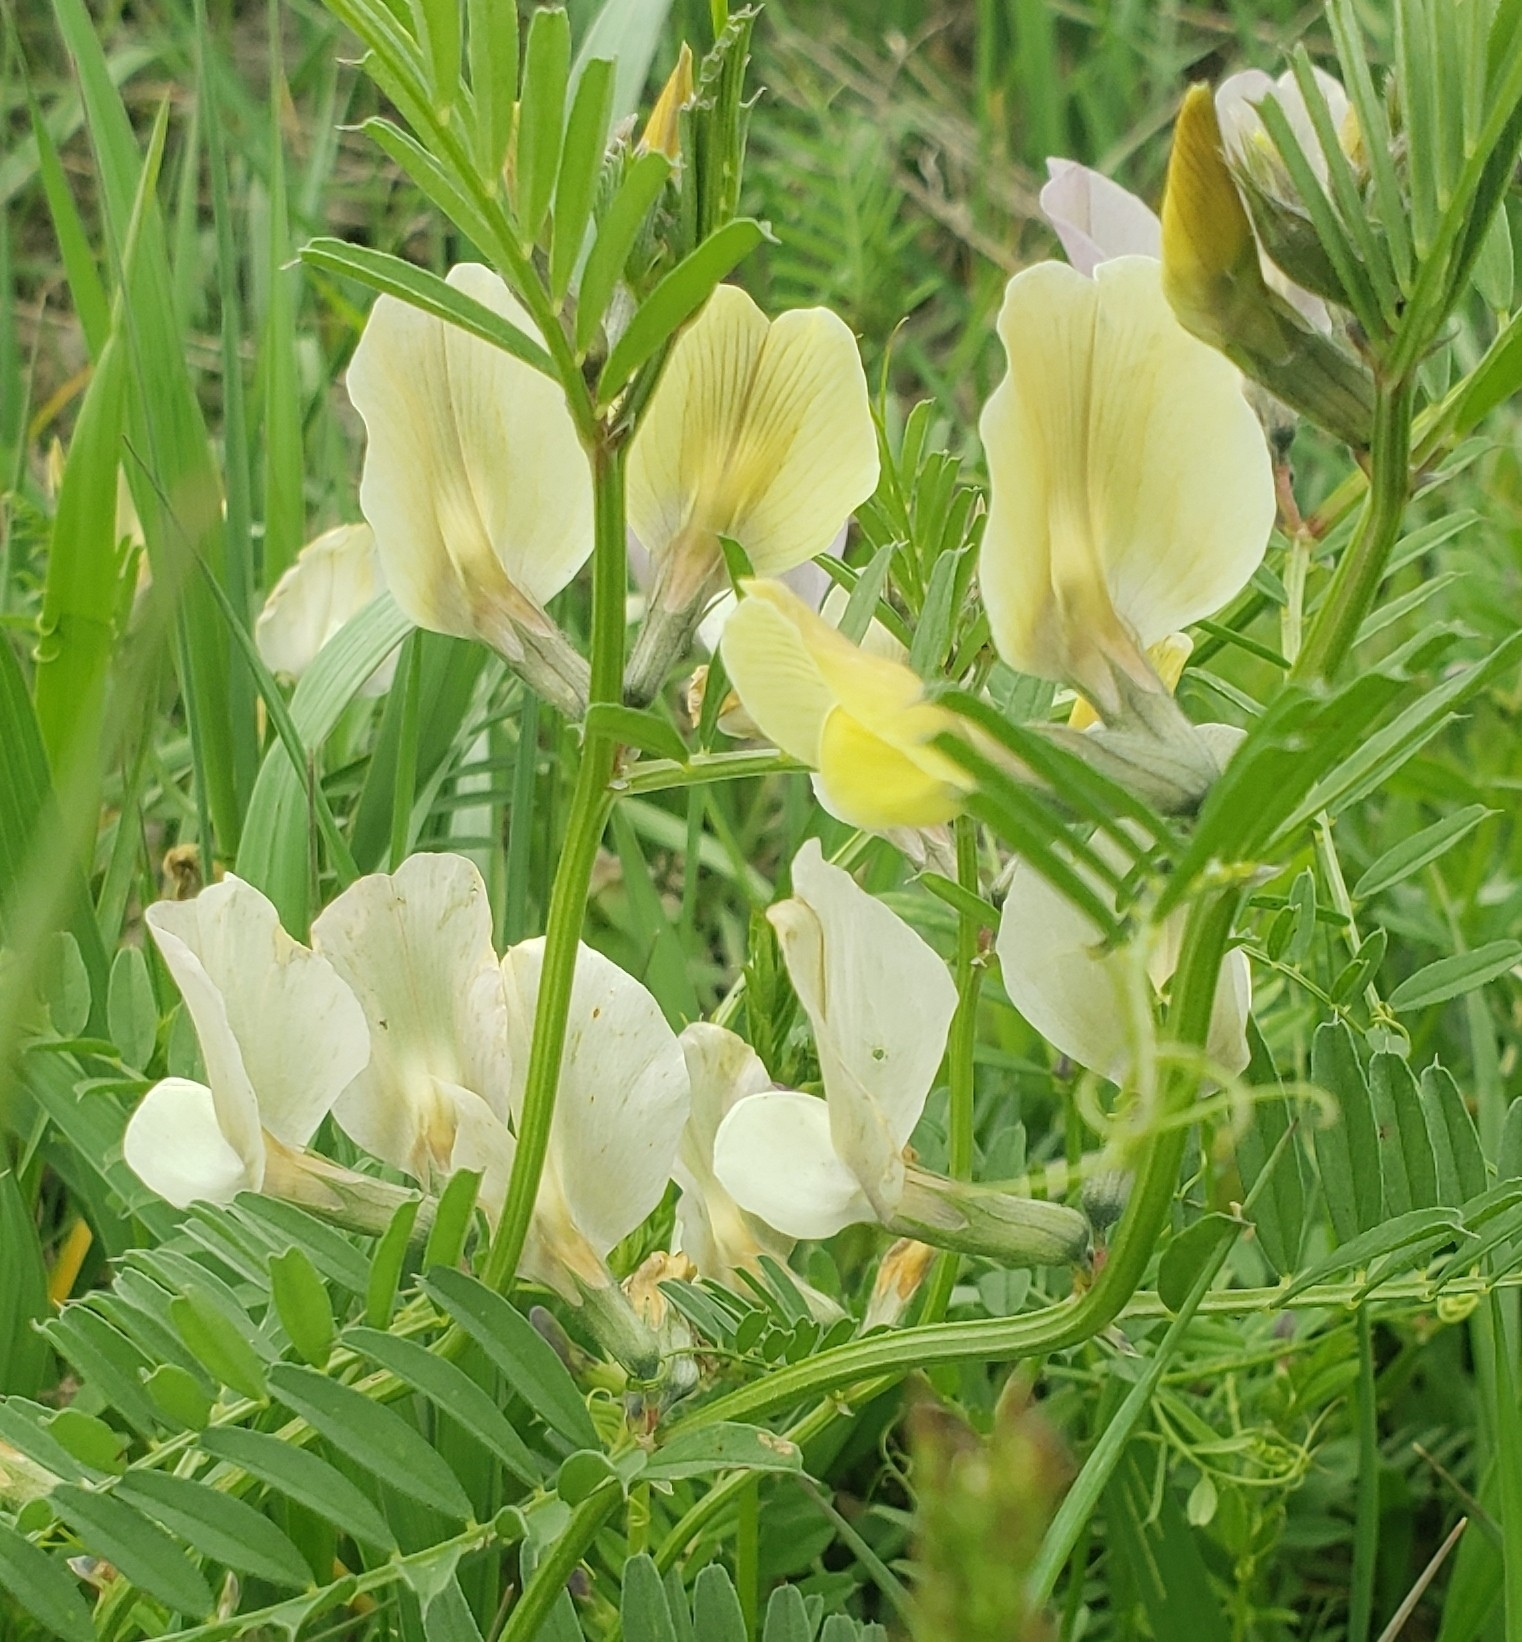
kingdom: Plantae
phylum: Tracheophyta
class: Magnoliopsida
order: Fabales
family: Fabaceae
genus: Vicia
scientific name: Vicia grandiflora
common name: Large yellow vetch
